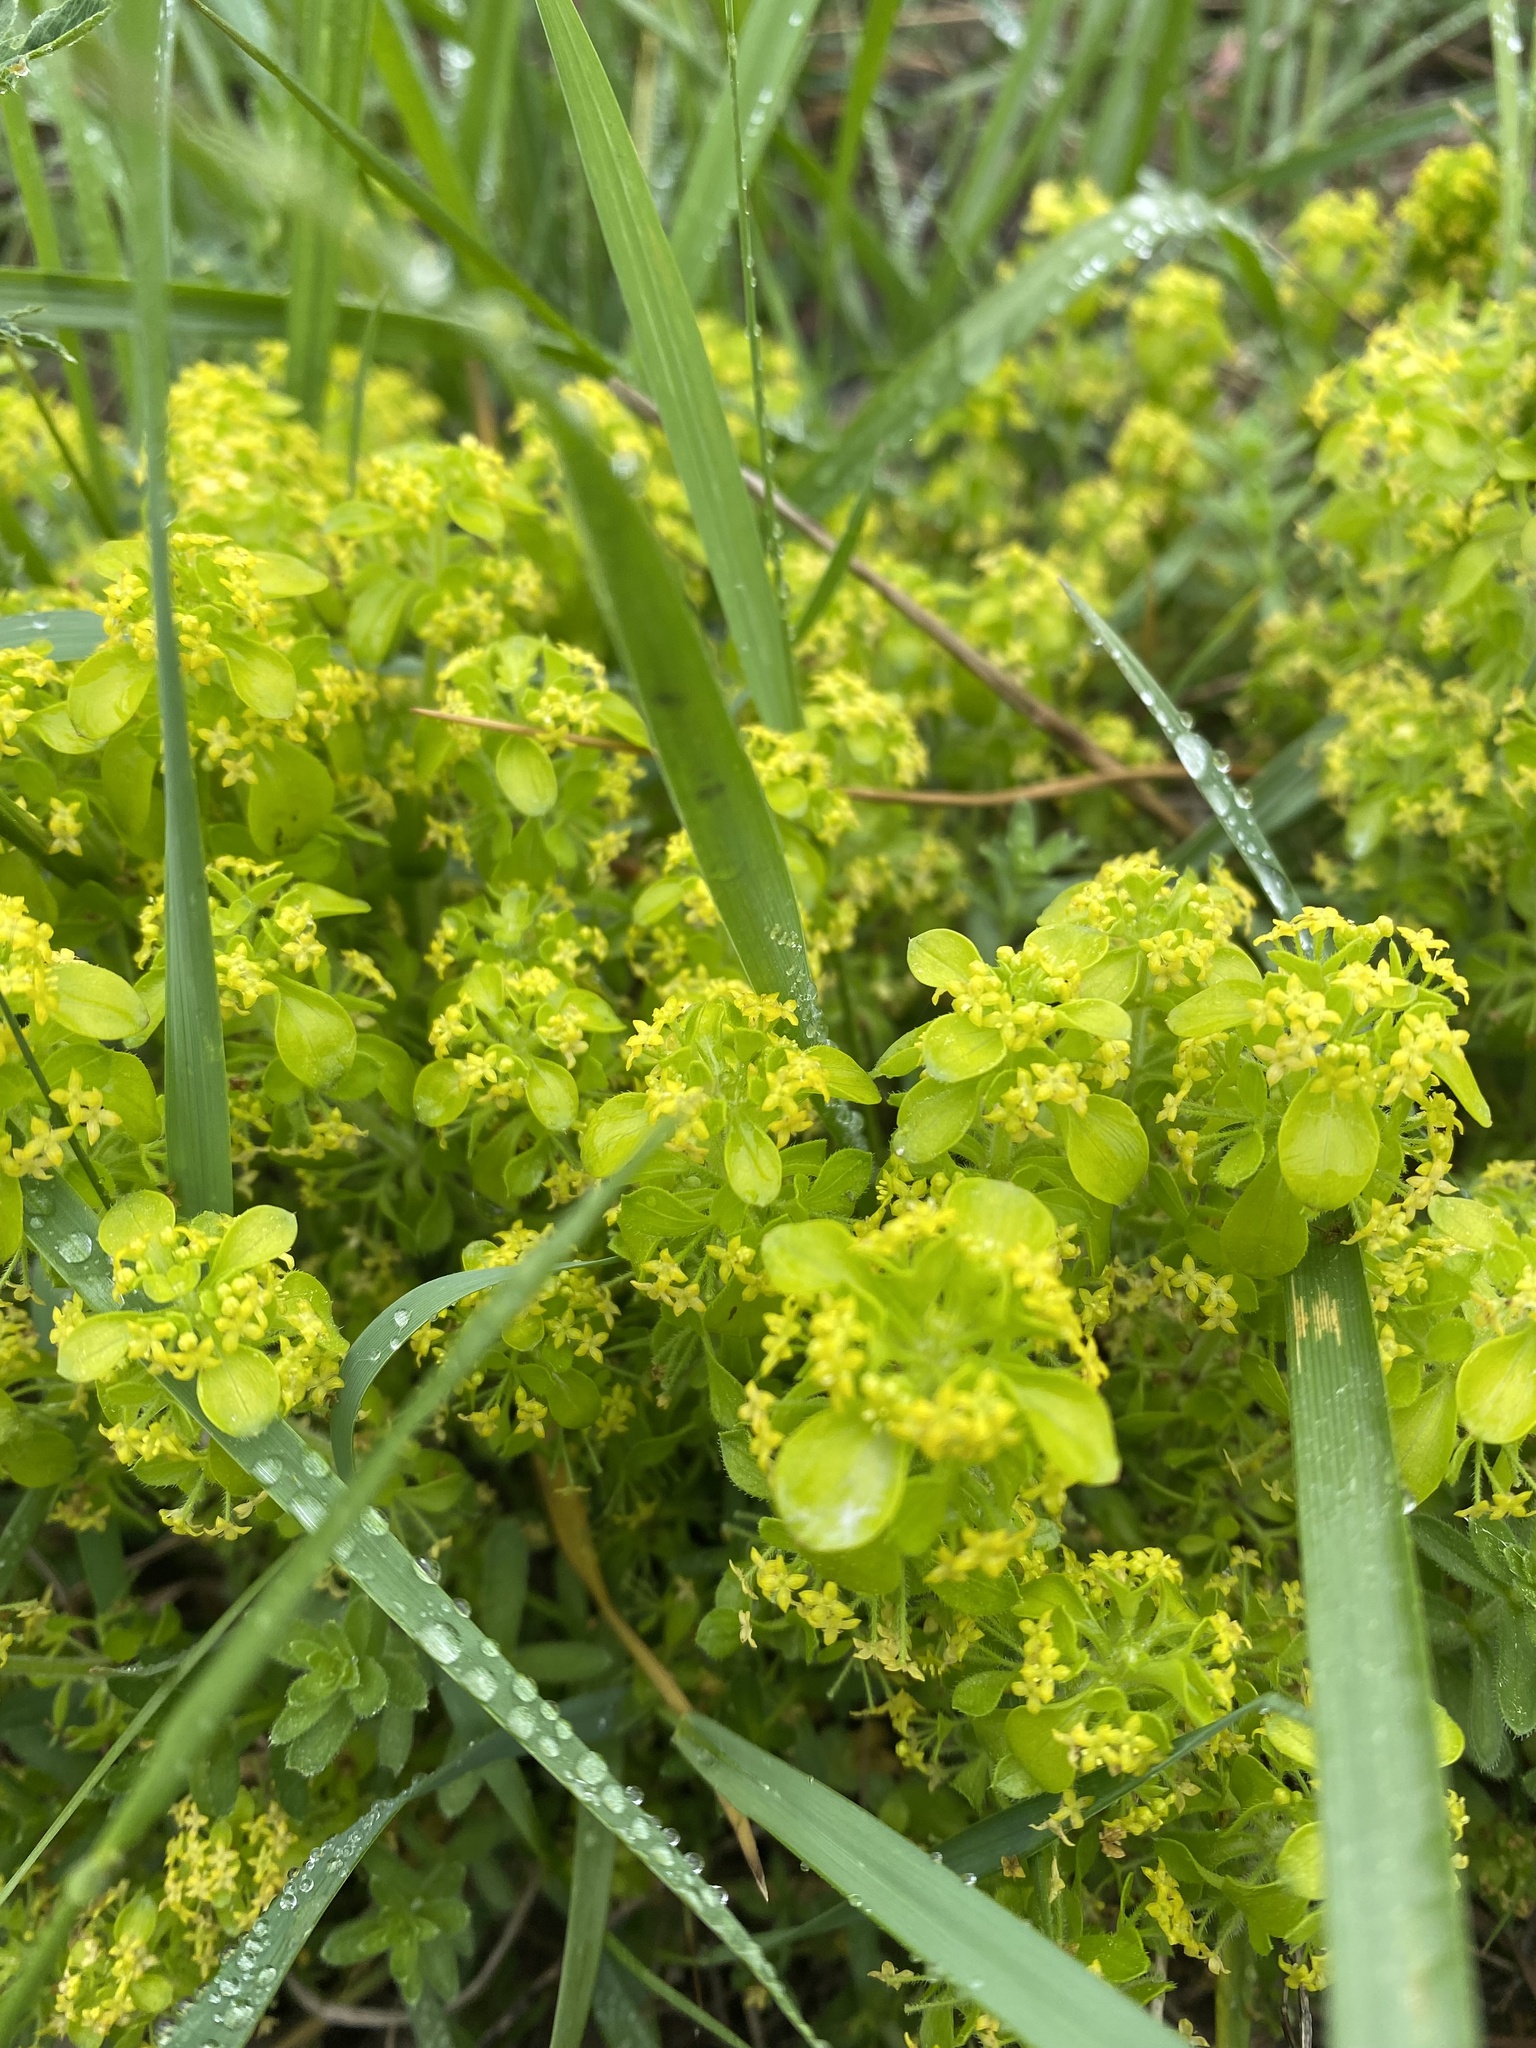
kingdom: Plantae
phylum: Tracheophyta
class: Magnoliopsida
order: Gentianales
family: Rubiaceae
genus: Cruciata
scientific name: Cruciata taurica
